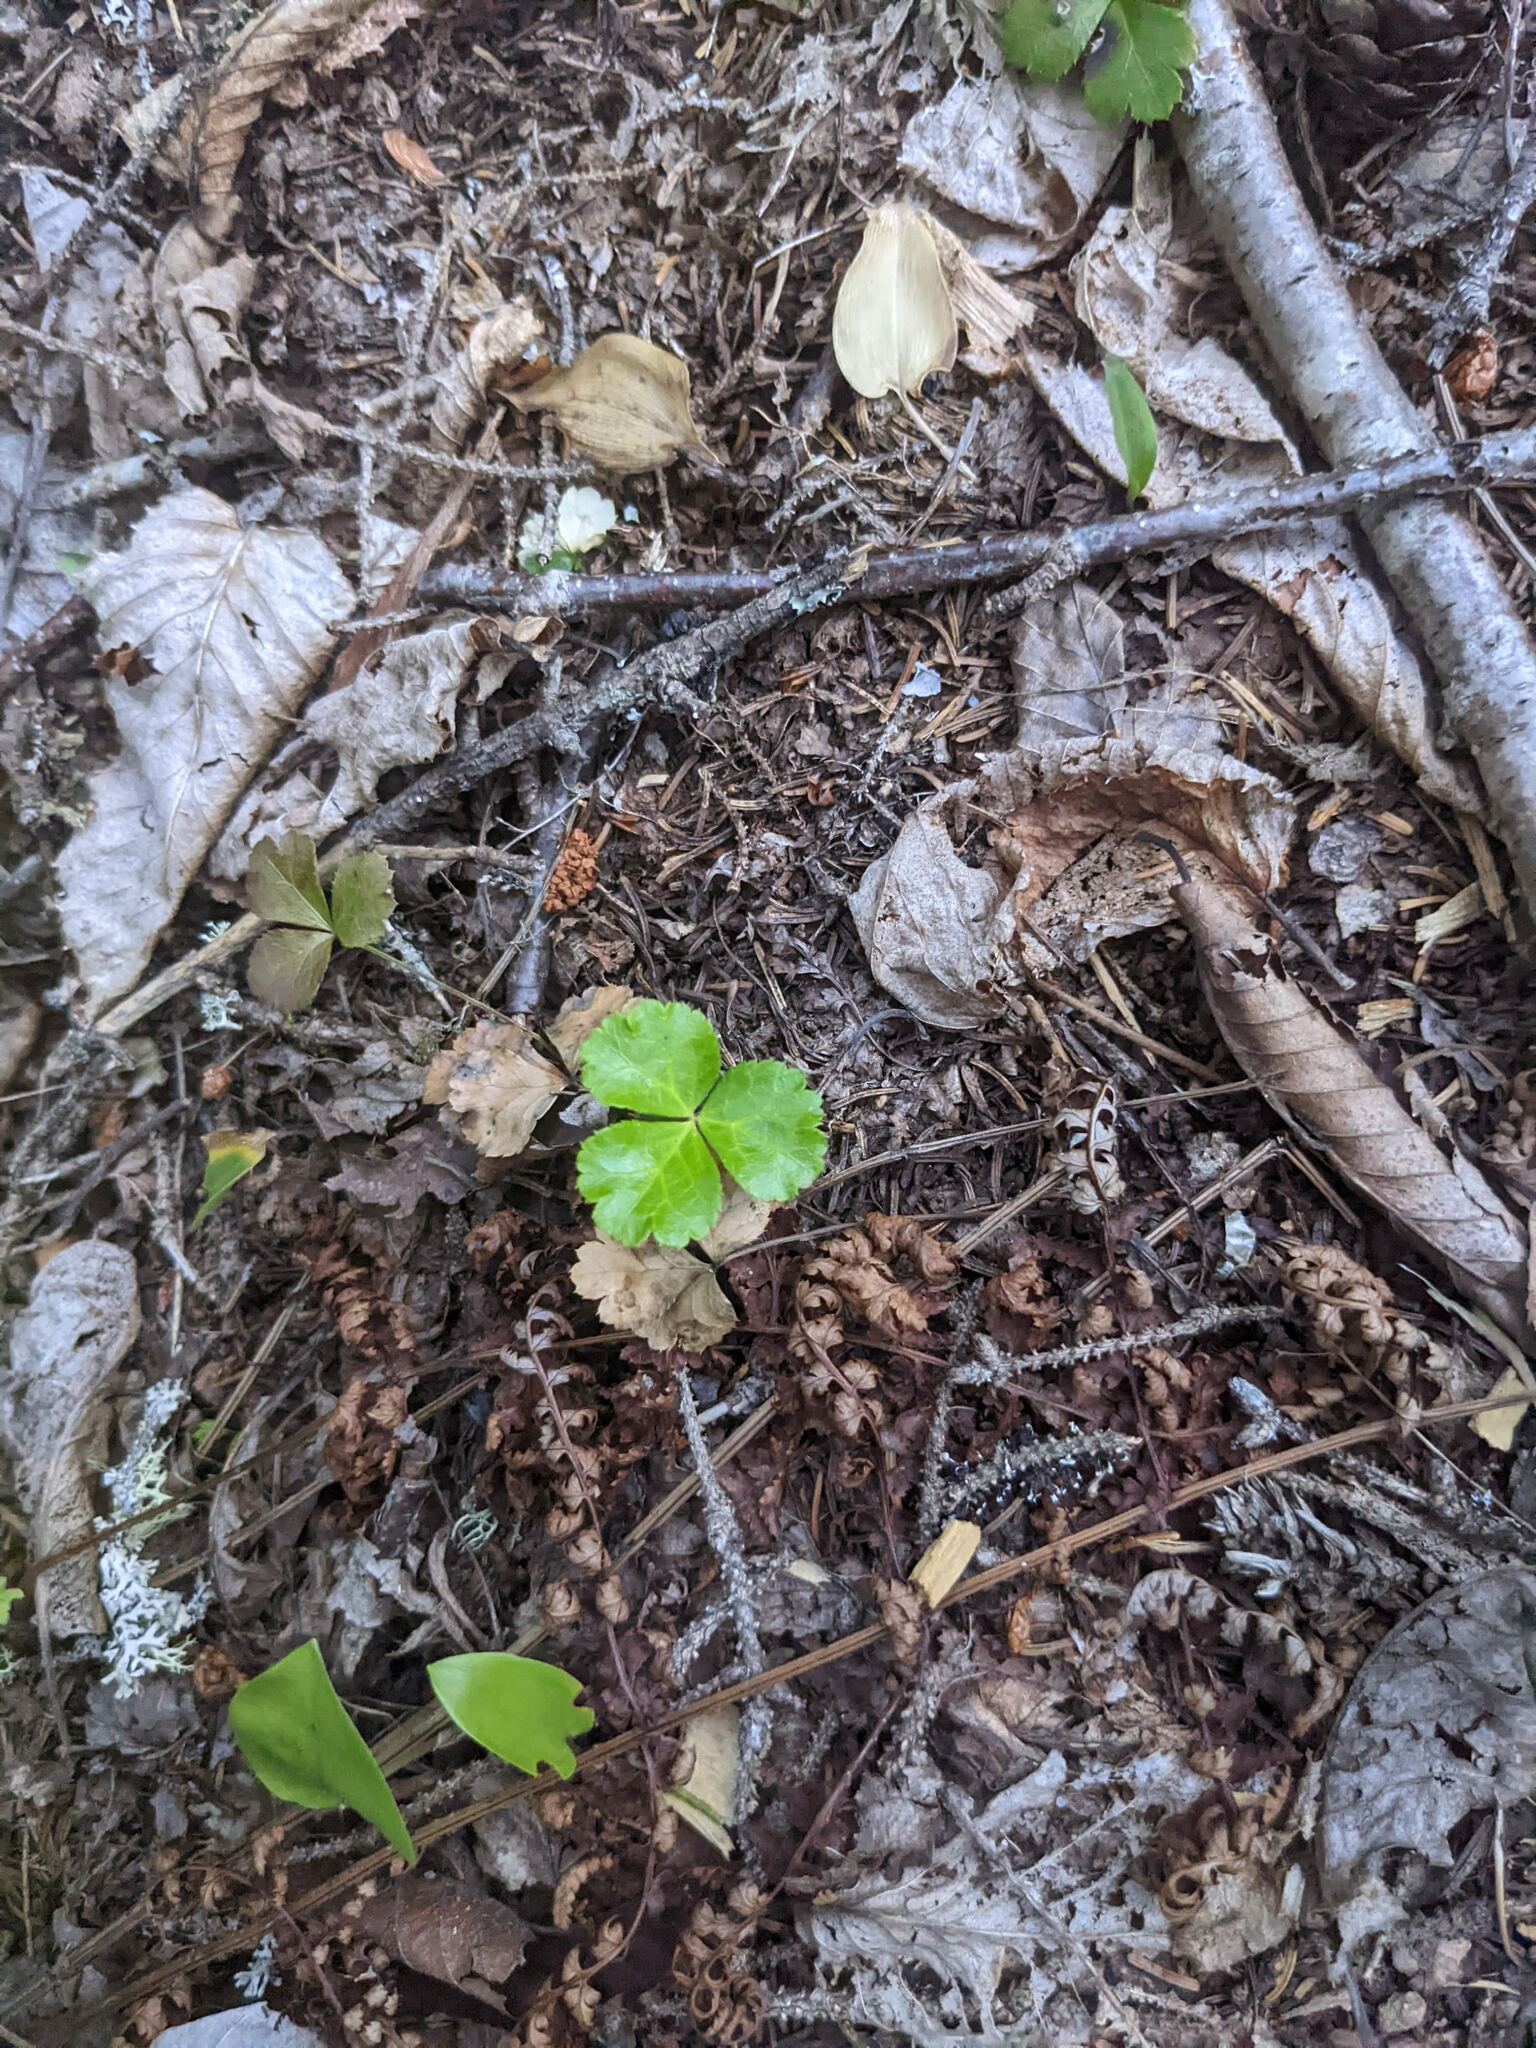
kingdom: Plantae
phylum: Tracheophyta
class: Magnoliopsida
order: Ranunculales
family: Ranunculaceae
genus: Coptis
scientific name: Coptis trifolia
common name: Canker-root
